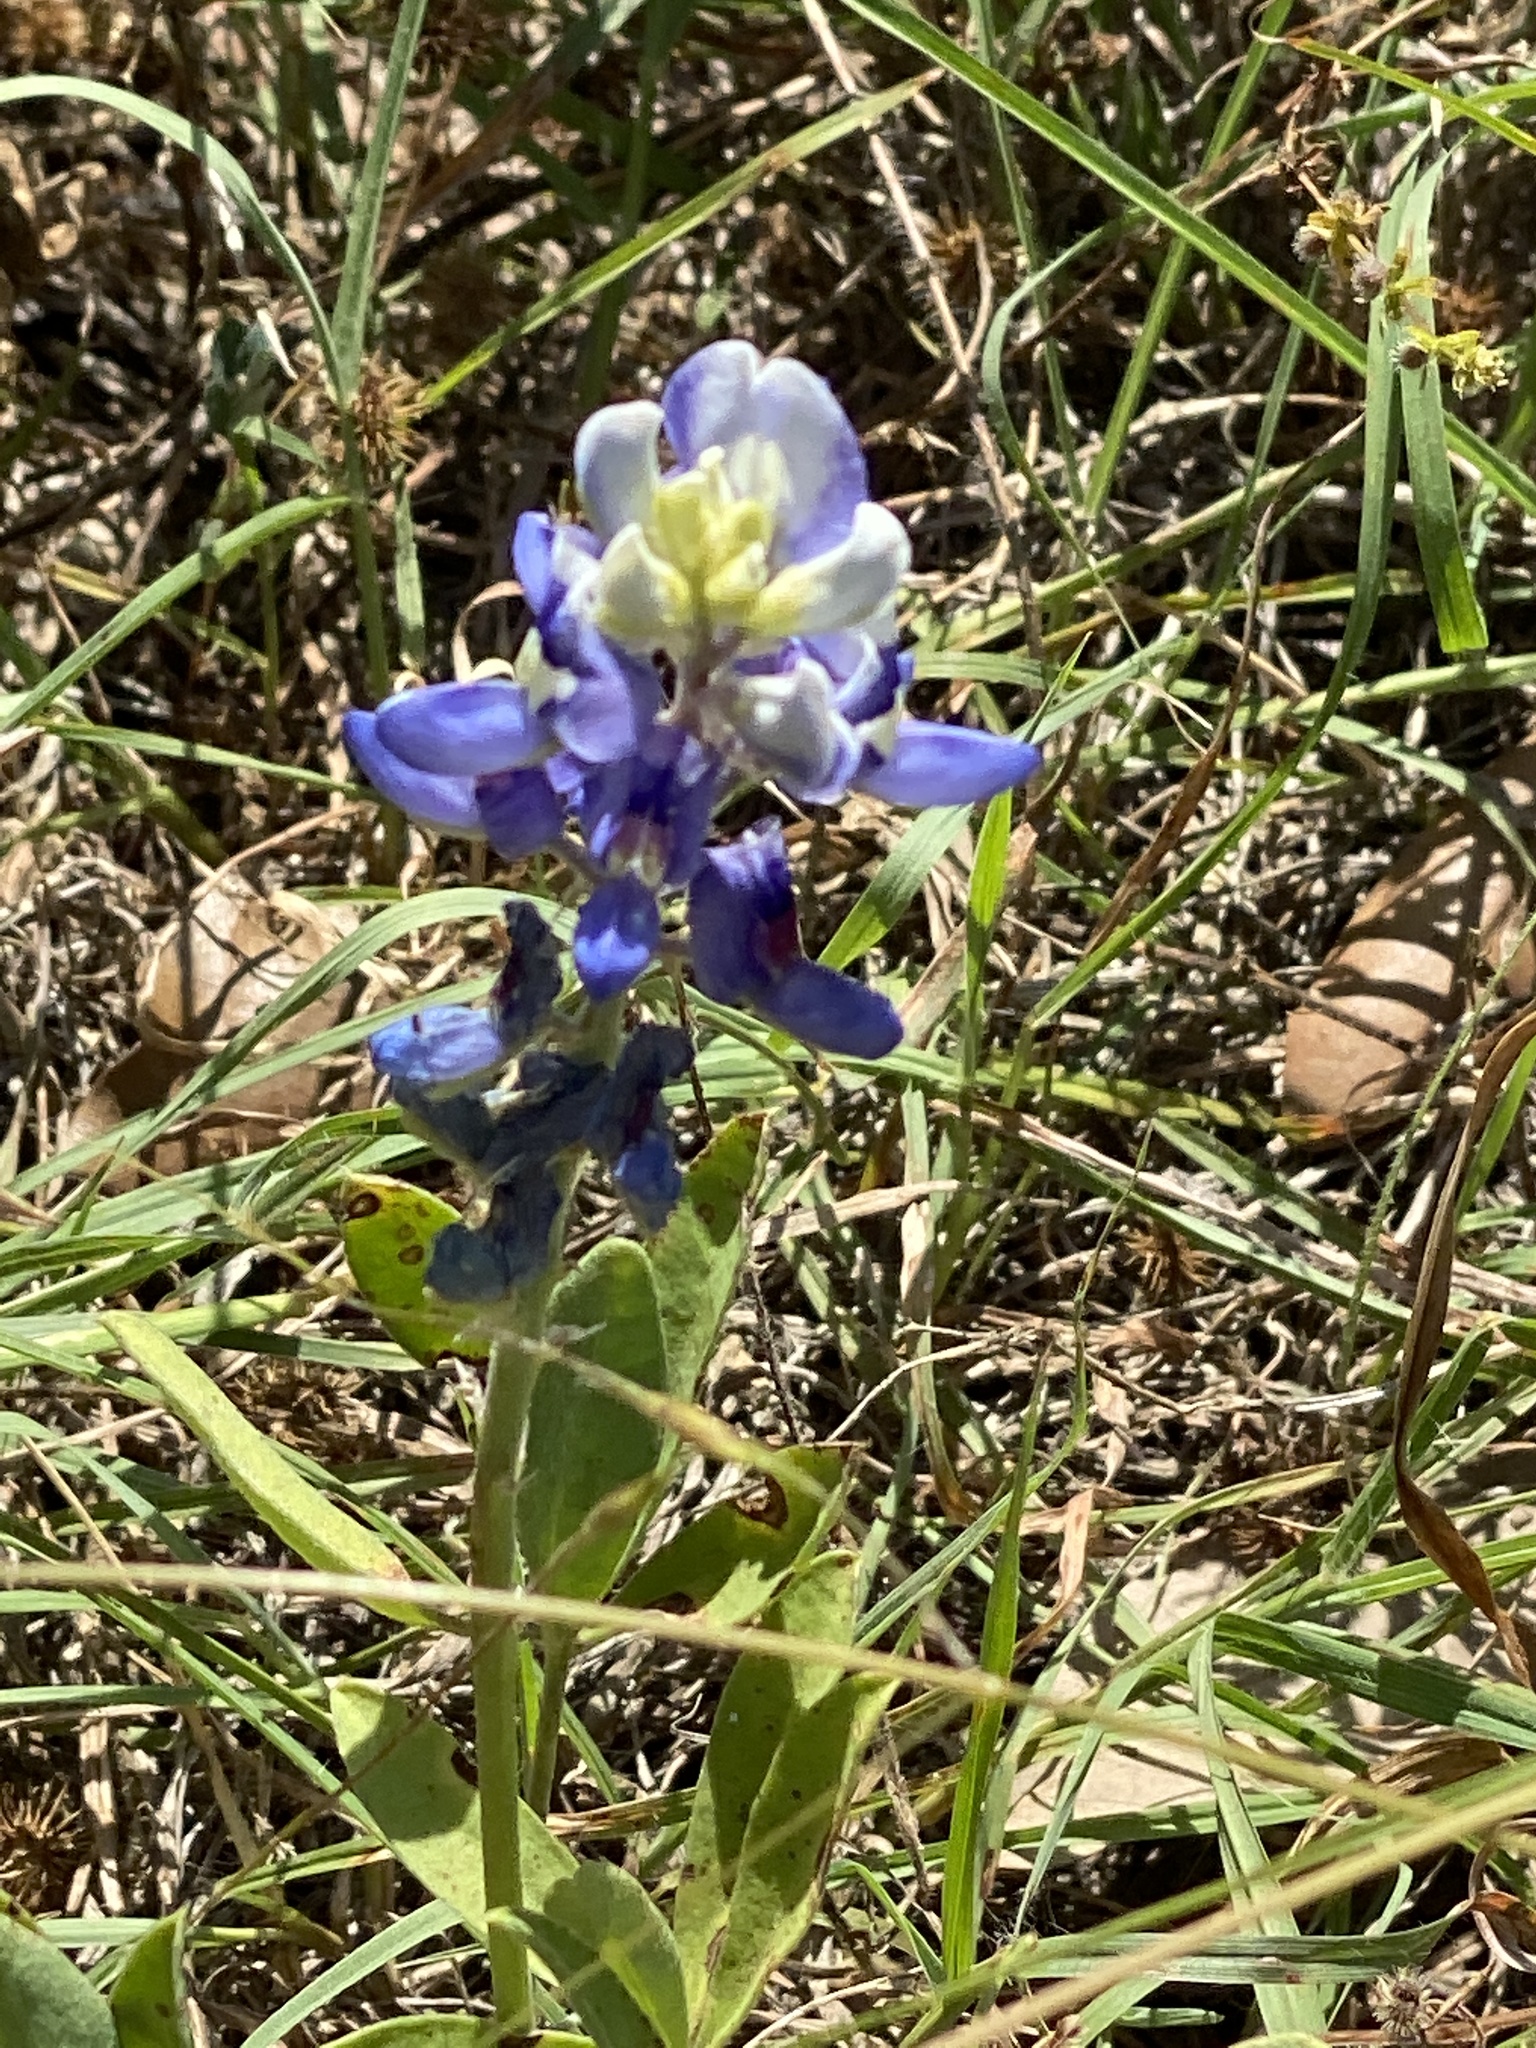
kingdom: Plantae
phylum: Tracheophyta
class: Magnoliopsida
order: Fabales
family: Fabaceae
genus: Lupinus
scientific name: Lupinus texensis
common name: Texas bluebonnet
